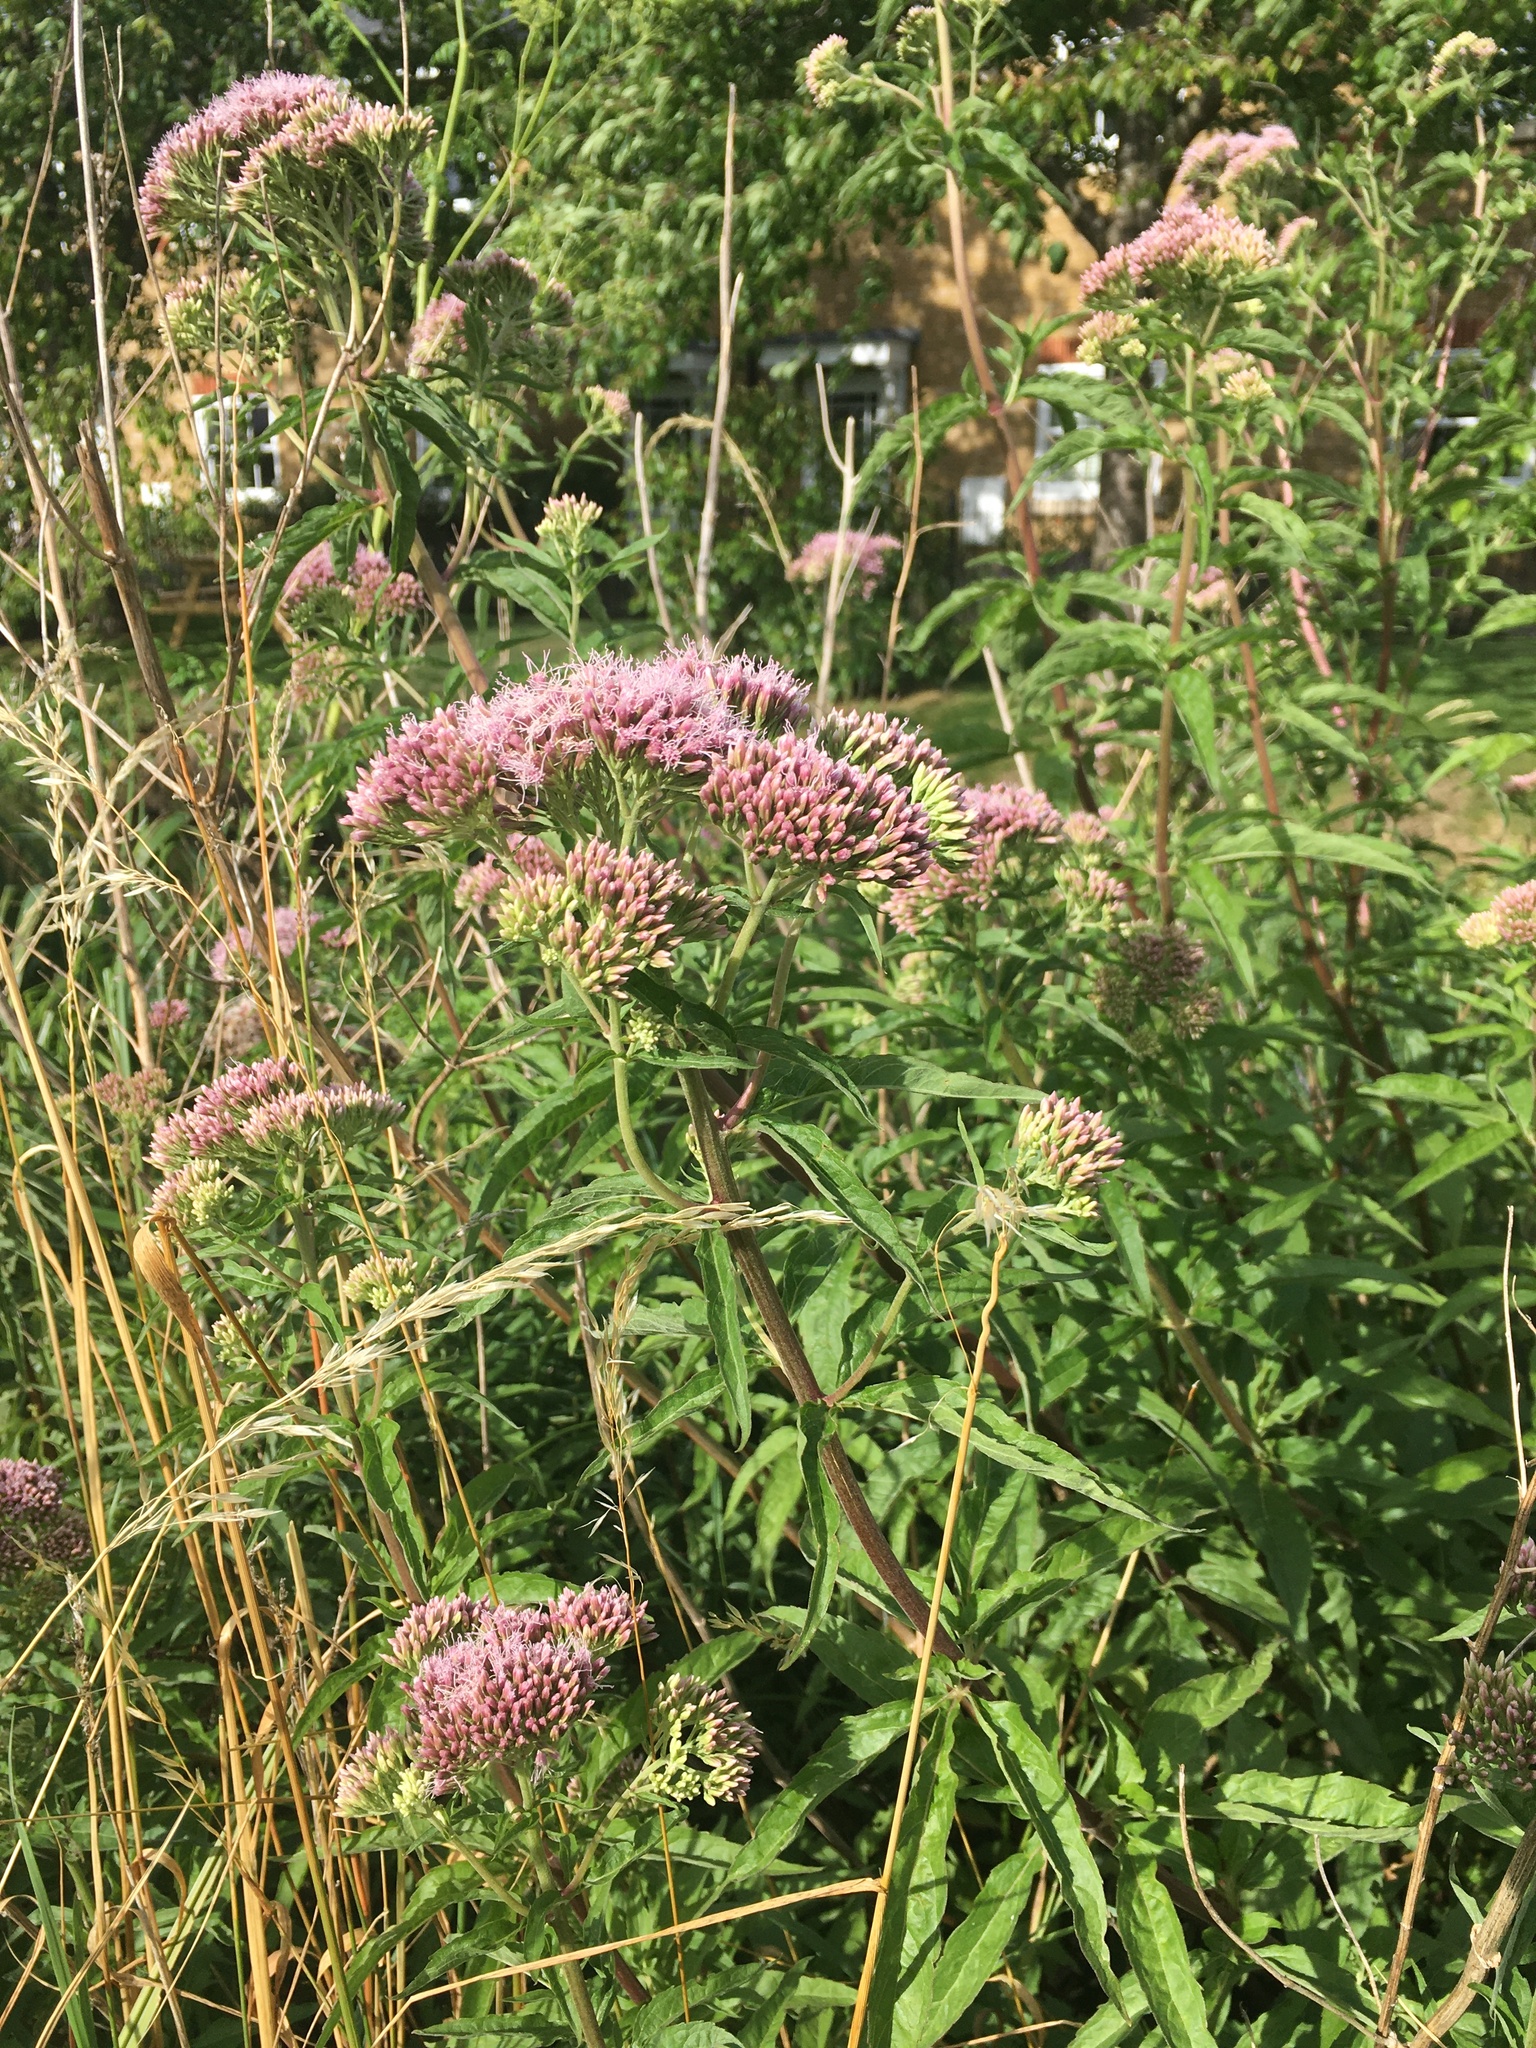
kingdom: Plantae
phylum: Tracheophyta
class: Magnoliopsida
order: Asterales
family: Asteraceae
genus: Eupatorium
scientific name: Eupatorium cannabinum
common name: Hemp-agrimony
